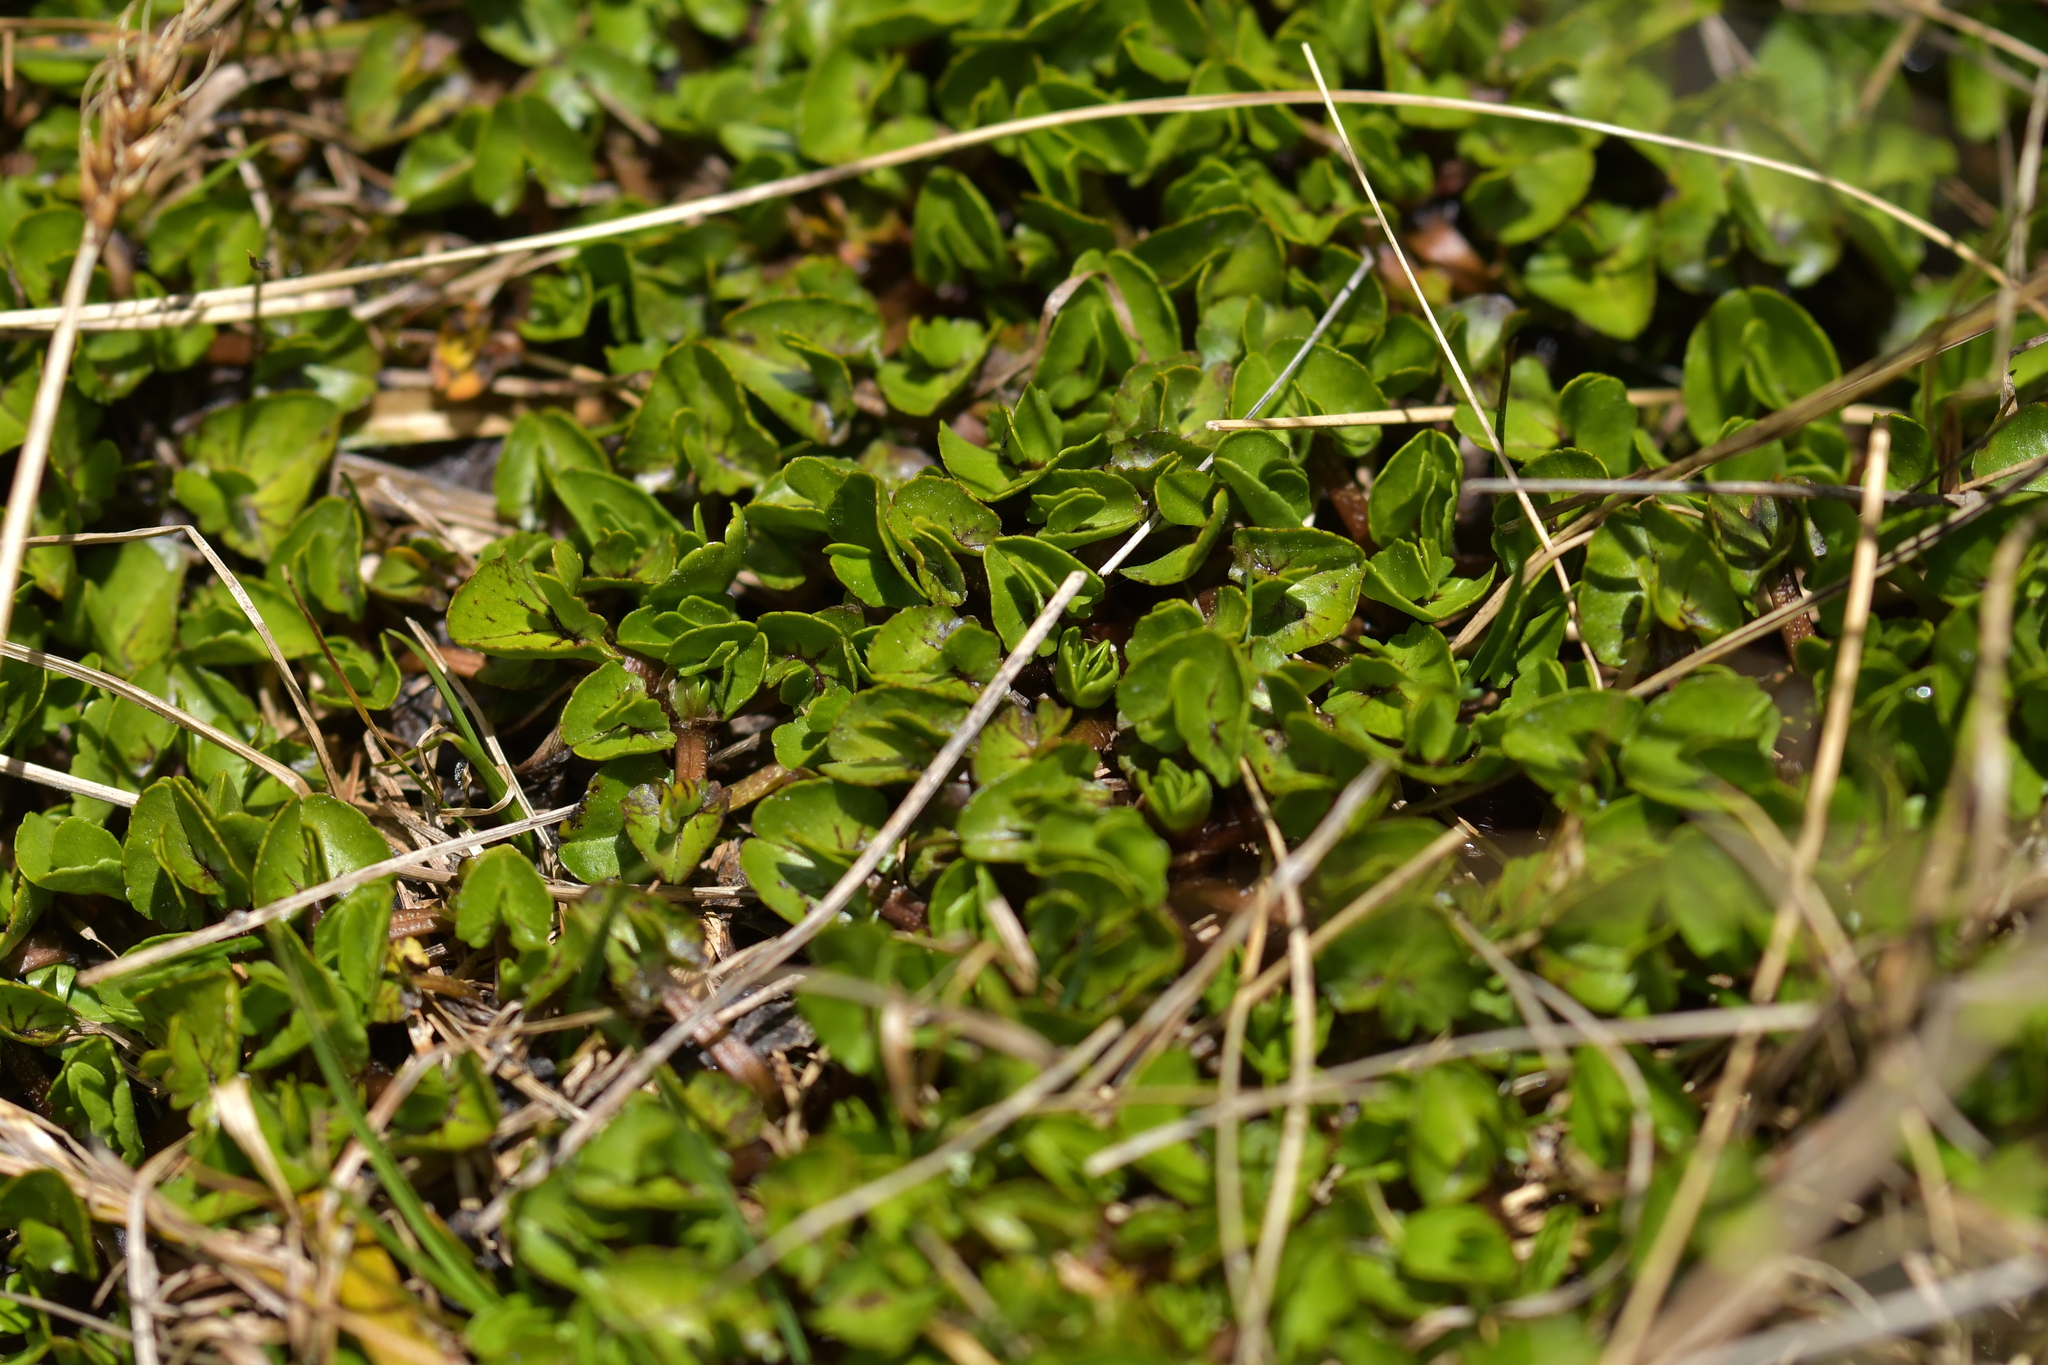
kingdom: Plantae
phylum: Tracheophyta
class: Magnoliopsida
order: Ranunculales
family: Ranunculaceae
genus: Caltha
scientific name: Caltha obtusa
